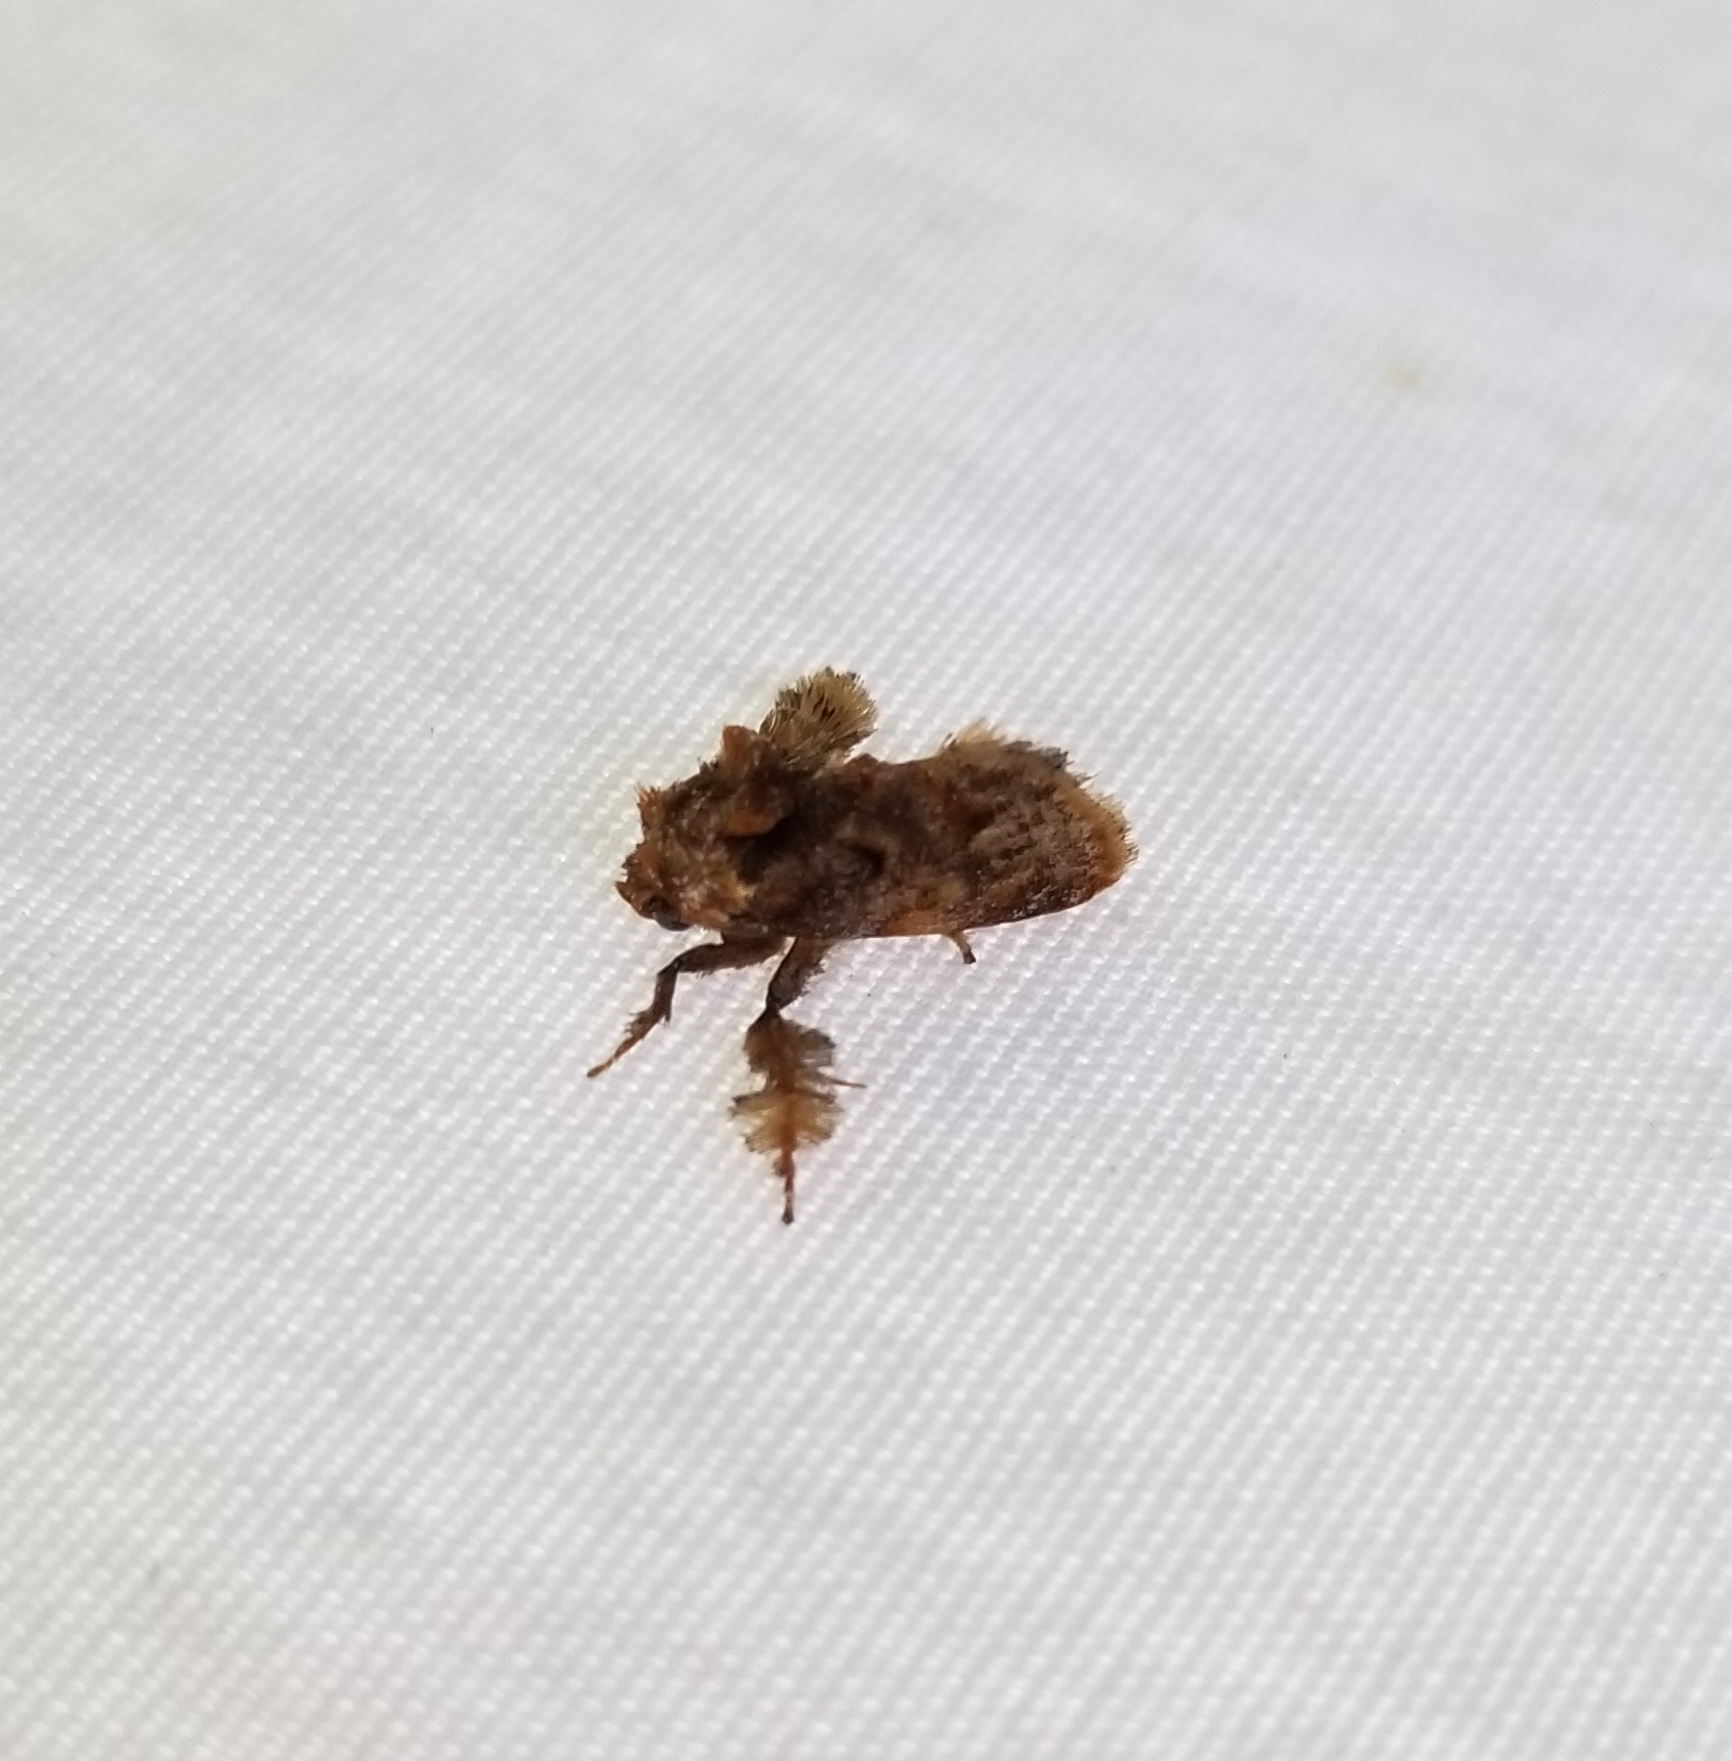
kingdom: Animalia
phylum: Arthropoda
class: Insecta
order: Lepidoptera
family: Limacodidae
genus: Isochaetes
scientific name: Isochaetes beutenmuelleri
